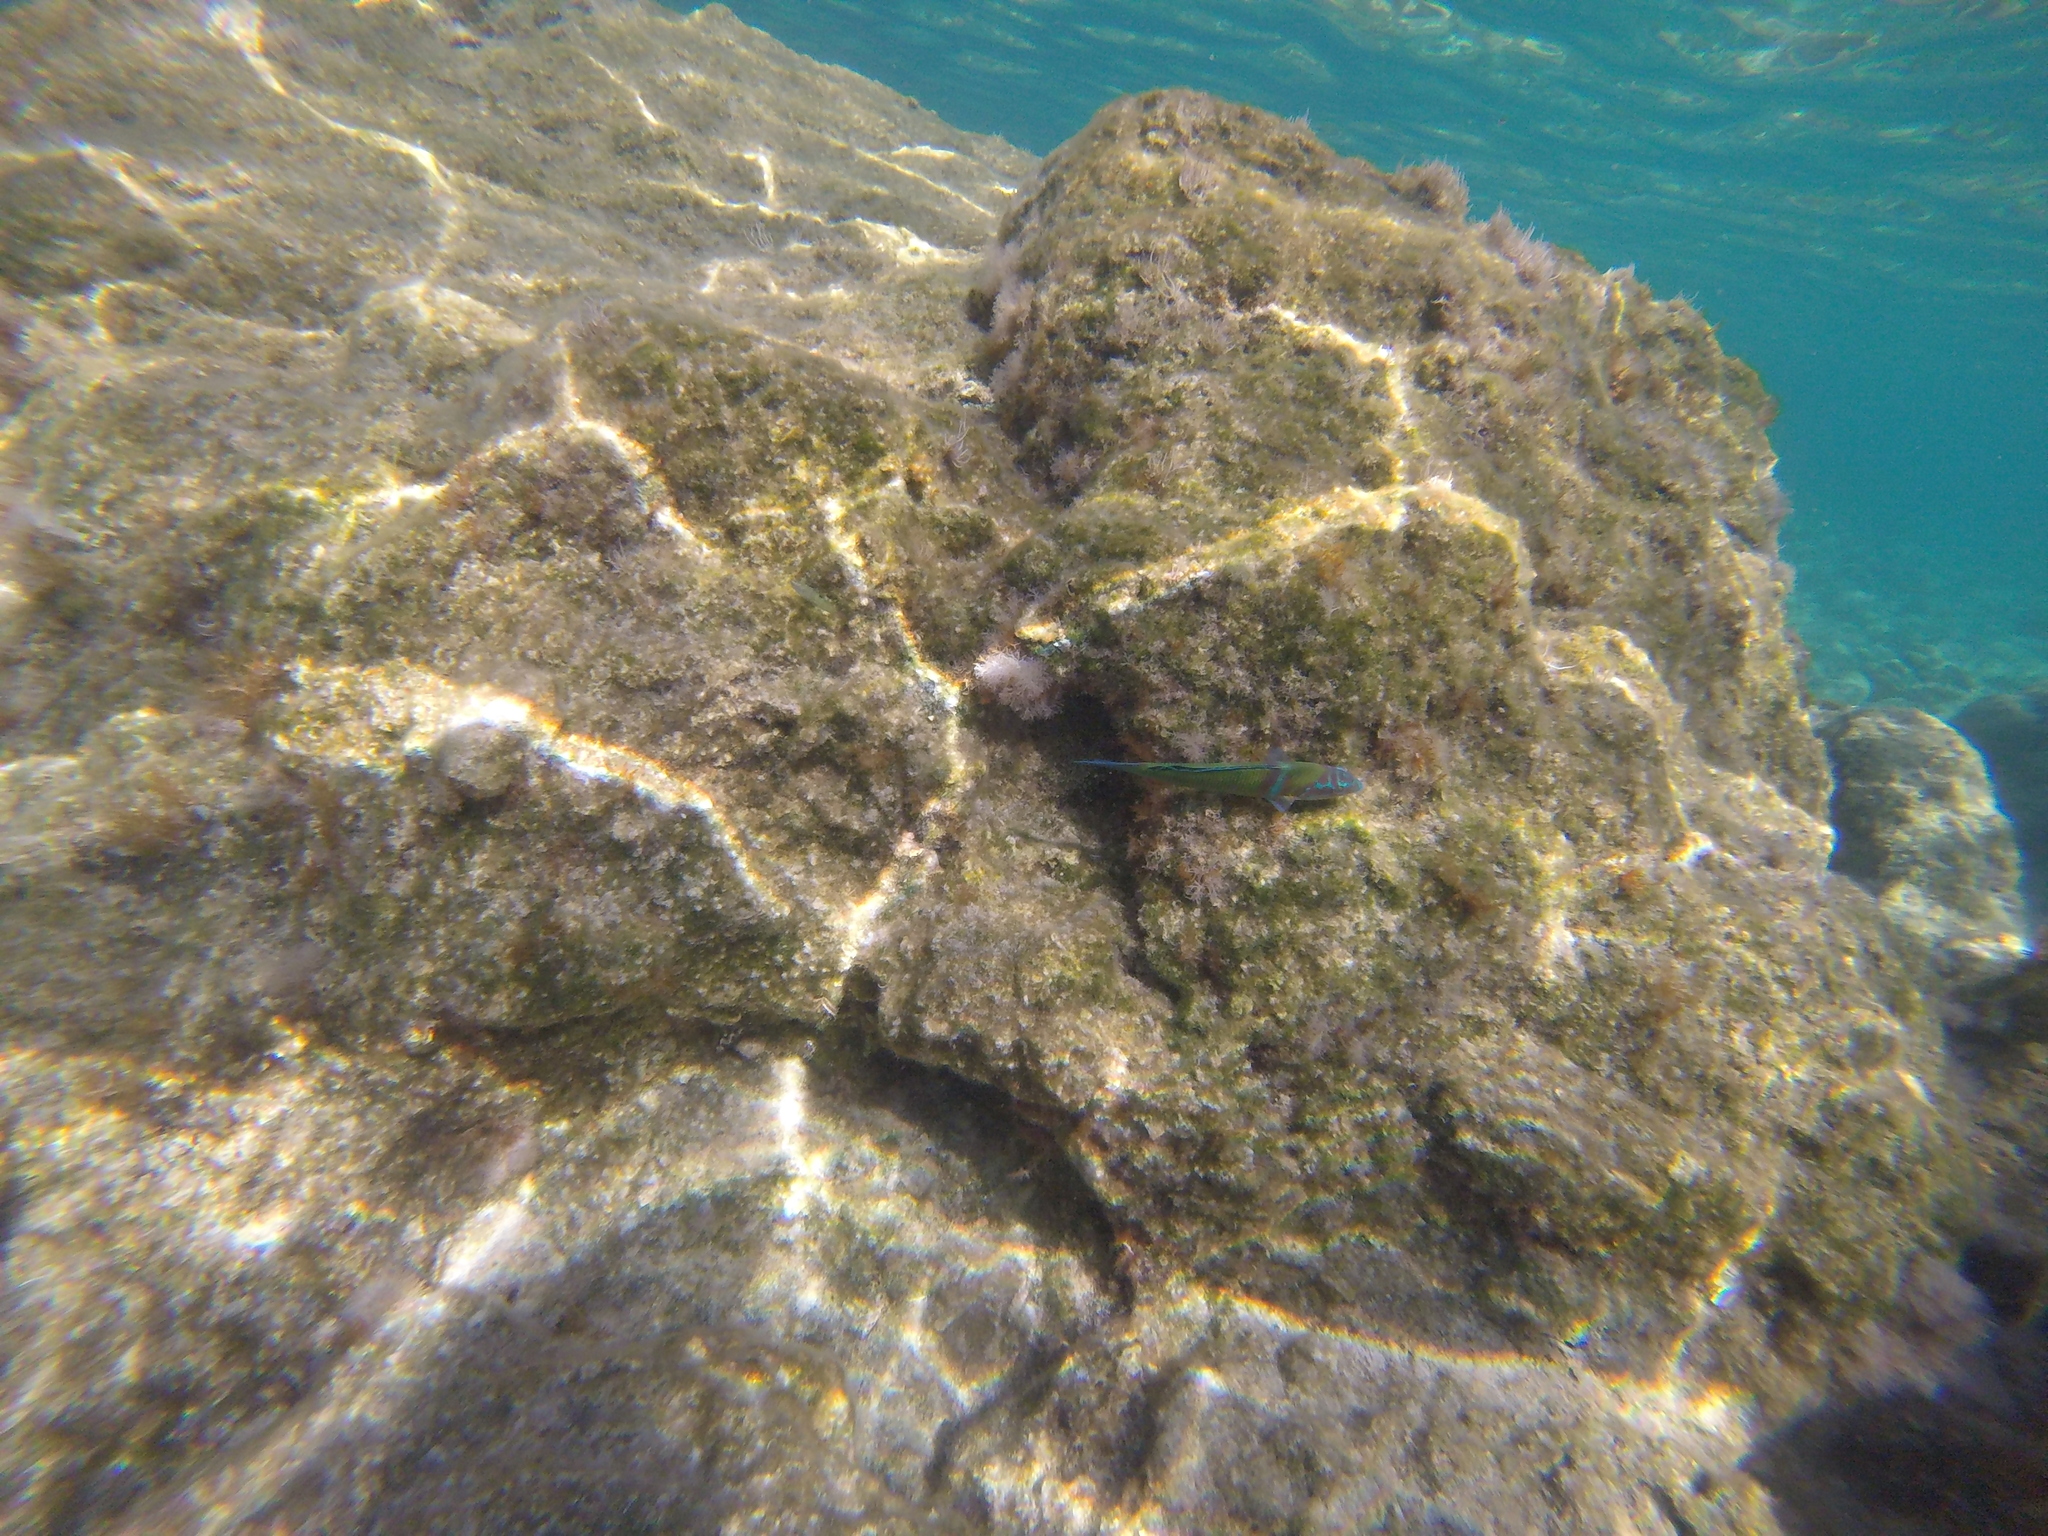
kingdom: Animalia
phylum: Chordata
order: Perciformes
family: Labridae
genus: Thalassoma
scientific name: Thalassoma pavo
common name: Ornate wrasse
